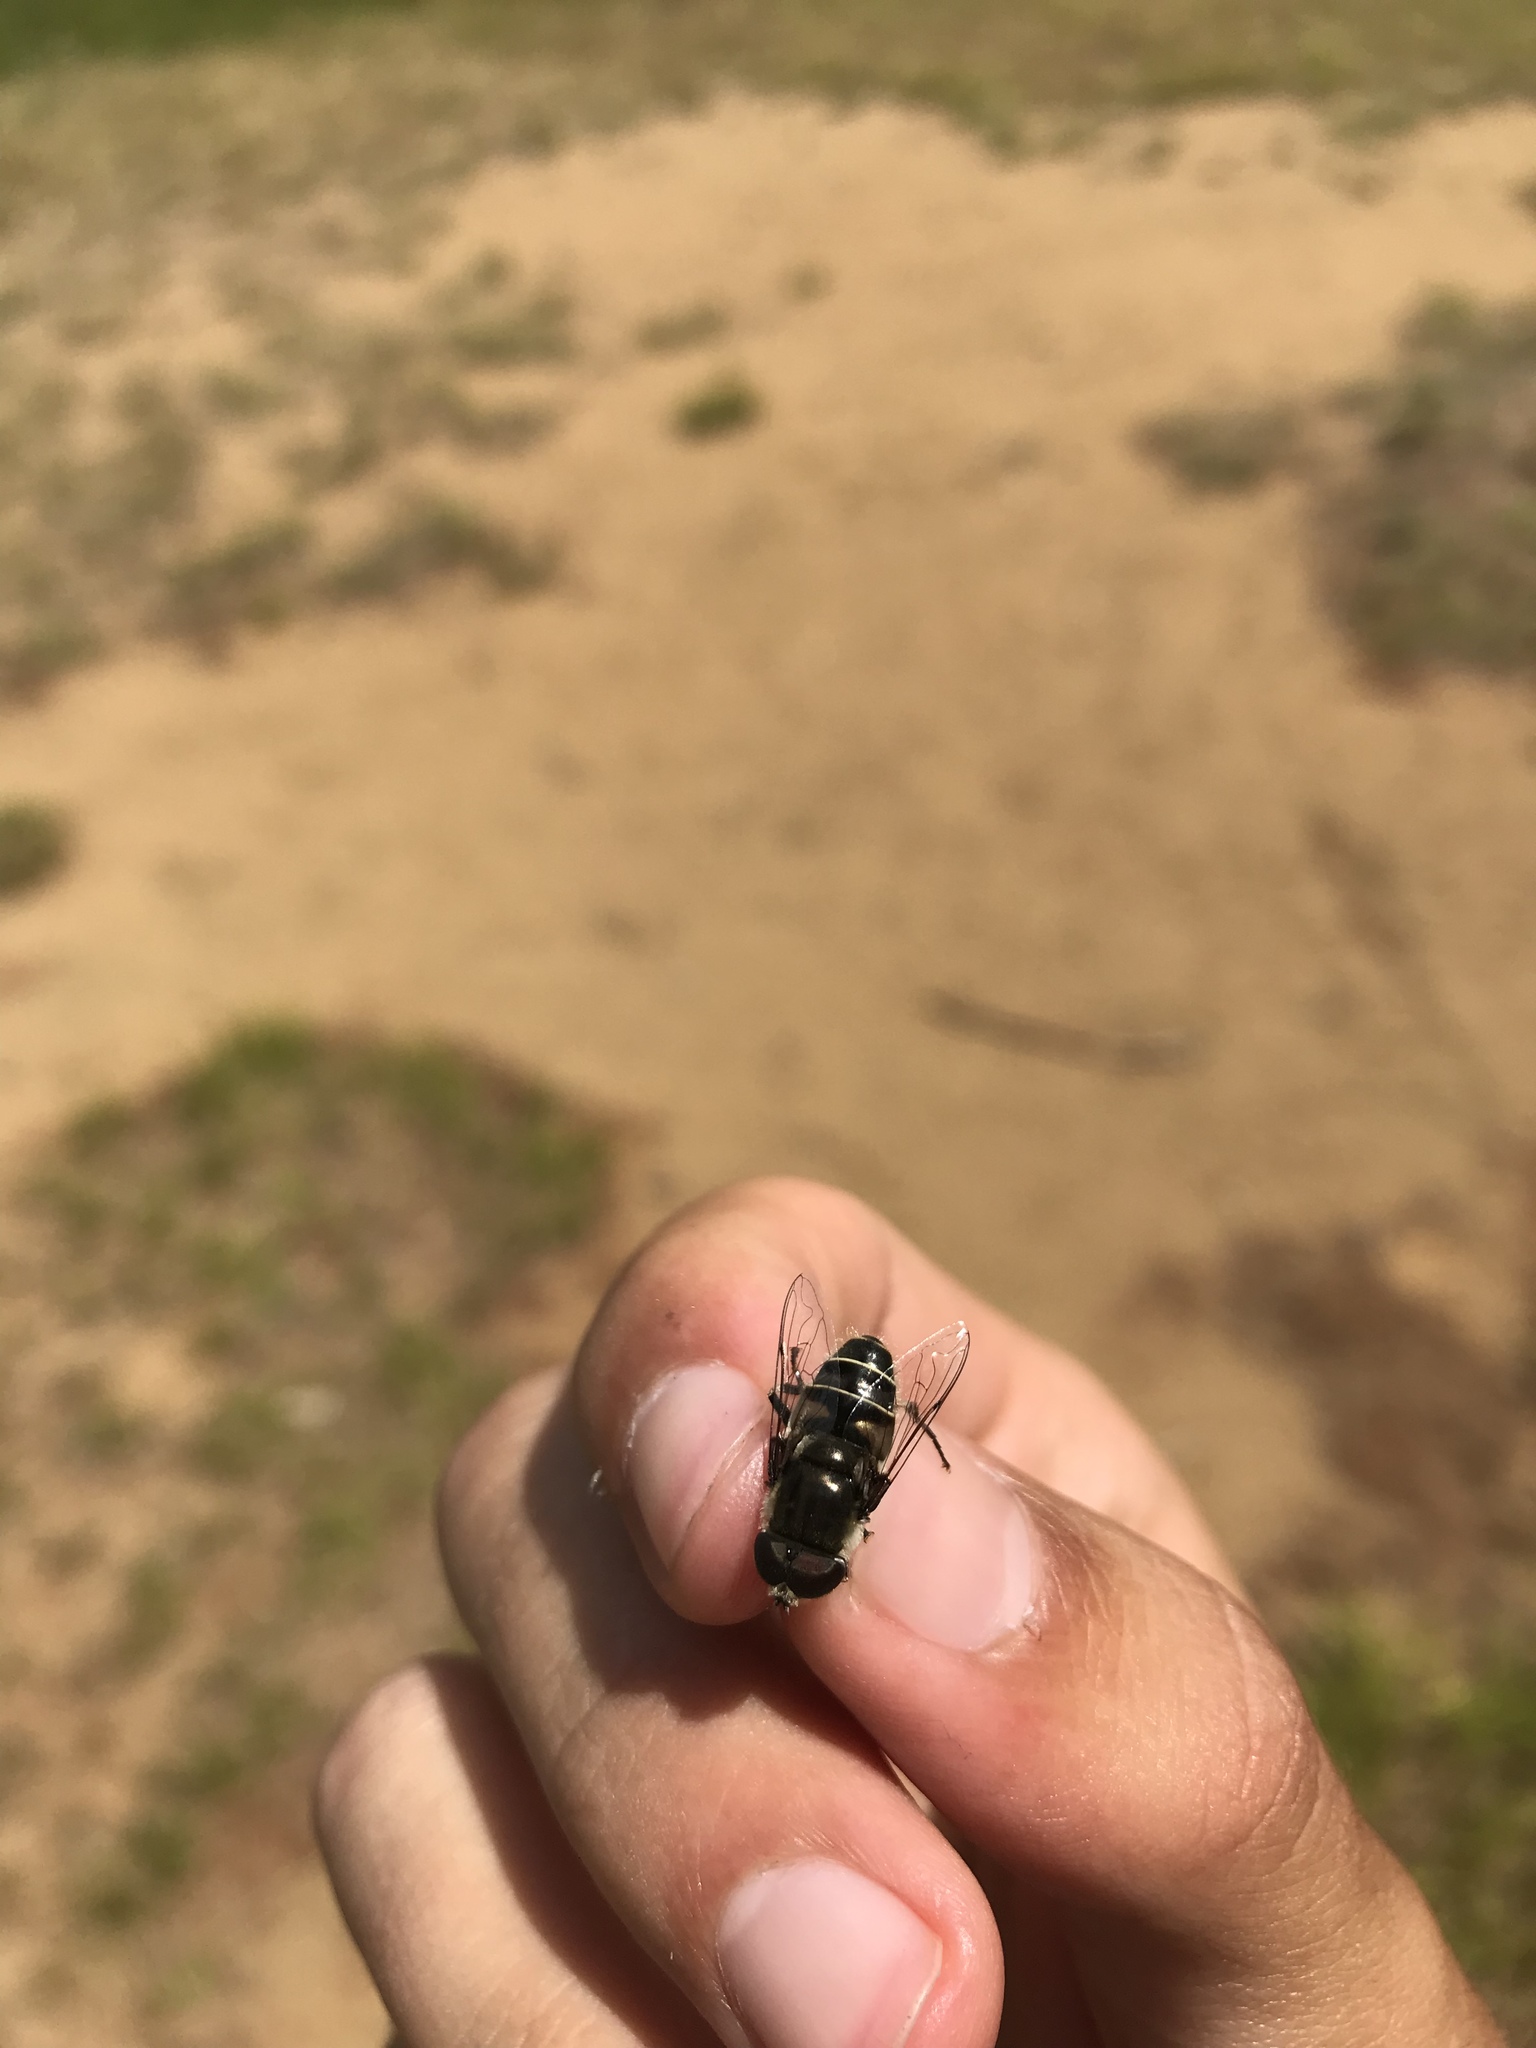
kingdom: Animalia
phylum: Arthropoda
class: Insecta
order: Diptera
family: Syrphidae
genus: Eristalis
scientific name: Eristalis dimidiata
